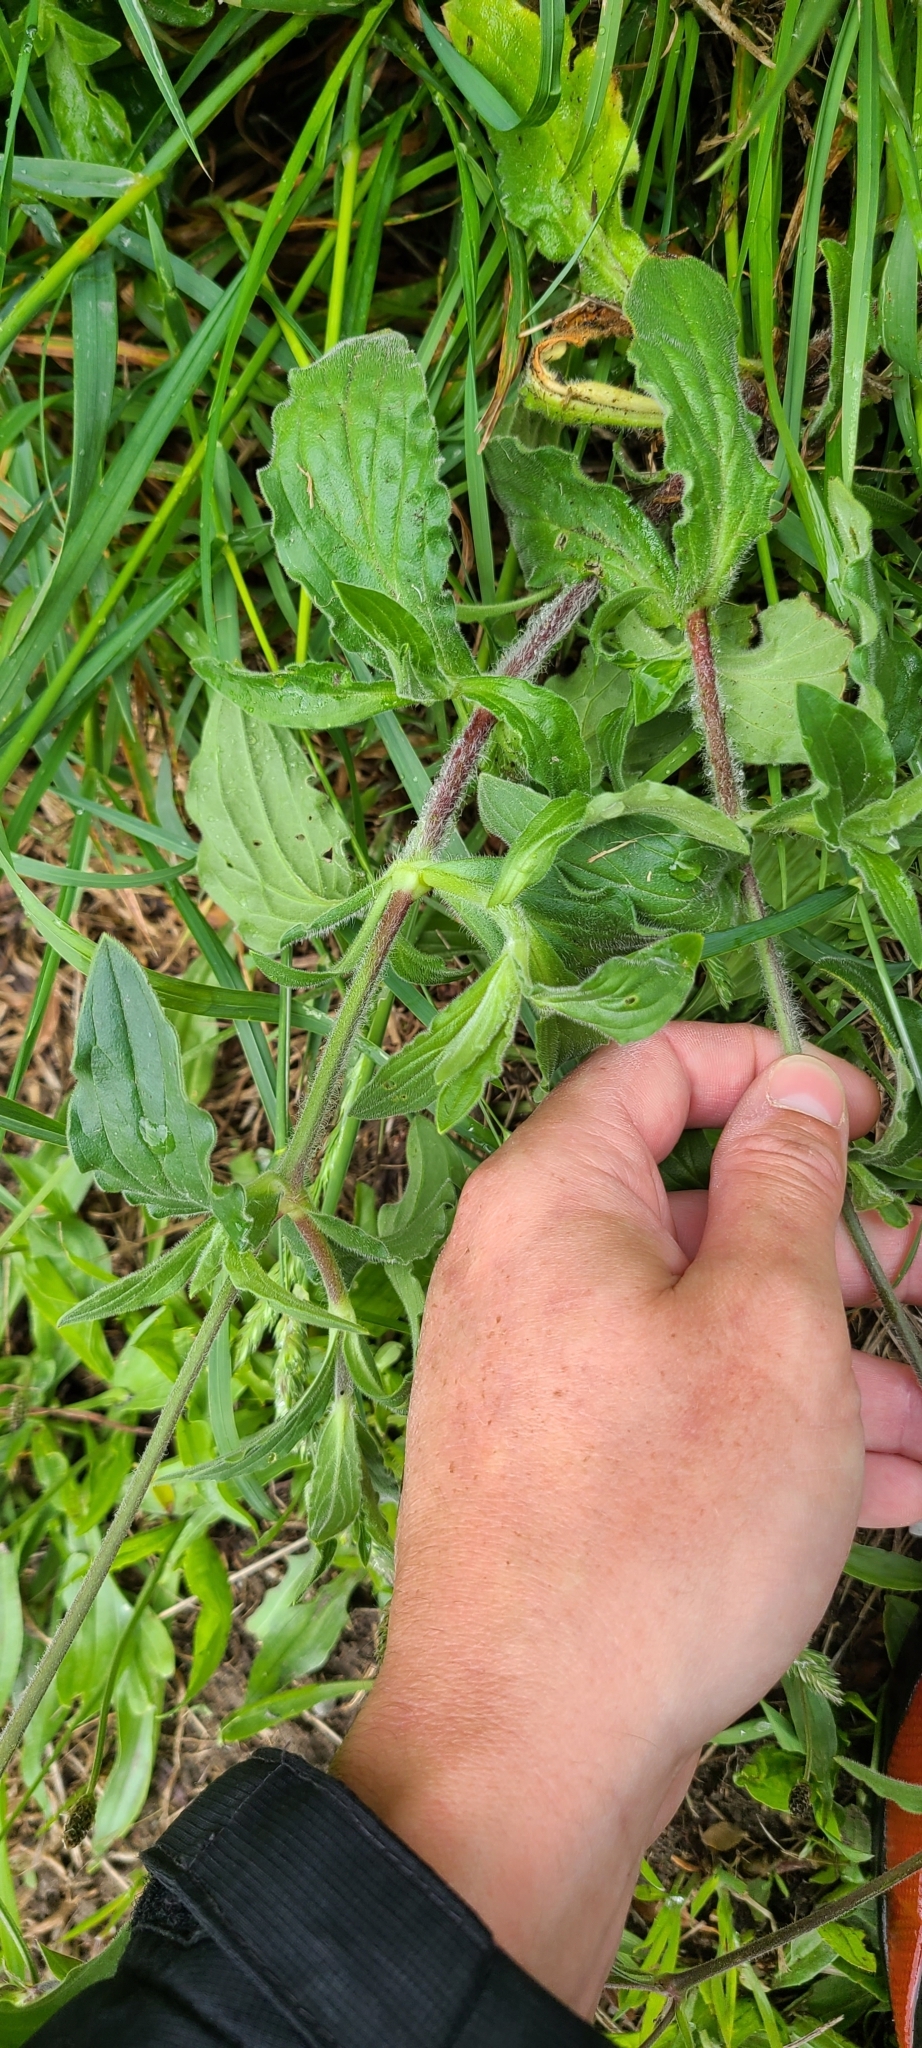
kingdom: Plantae
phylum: Tracheophyta
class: Magnoliopsida
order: Caryophyllales
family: Caryophyllaceae
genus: Silene
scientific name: Silene latifolia
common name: White campion
